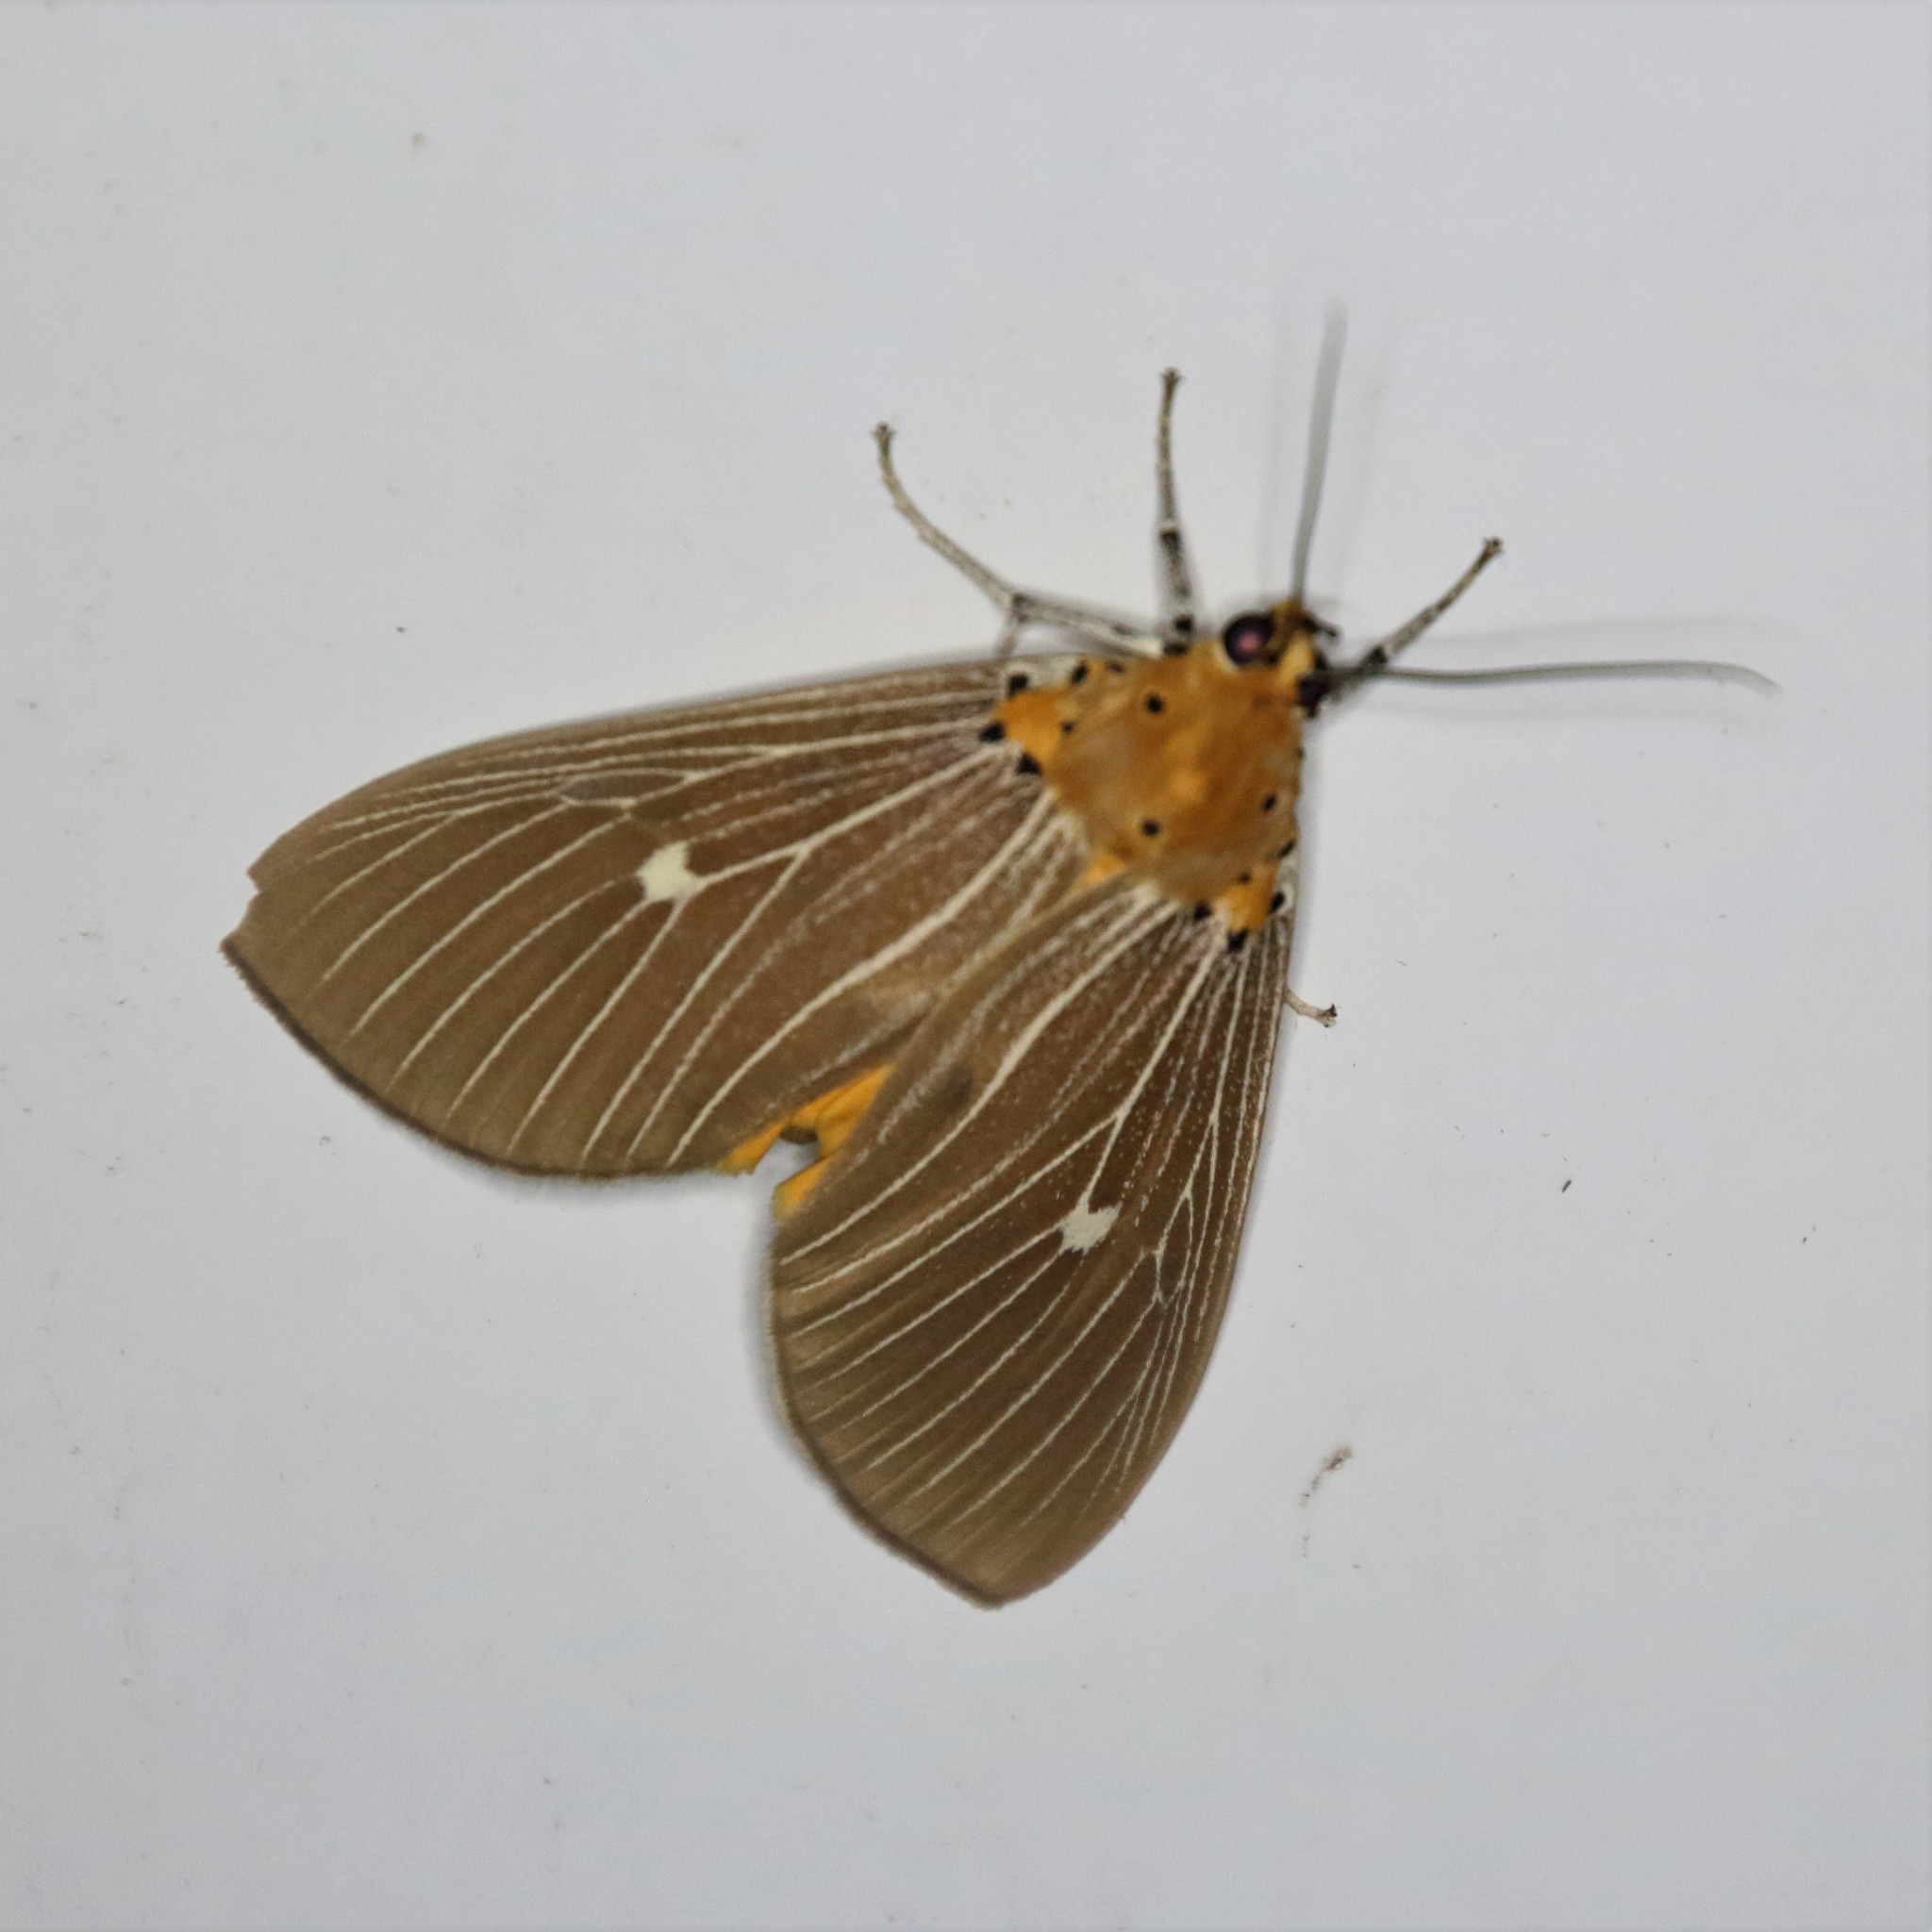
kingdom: Animalia
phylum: Arthropoda
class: Insecta
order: Lepidoptera
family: Erebidae
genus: Asota
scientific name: Asota caricae
